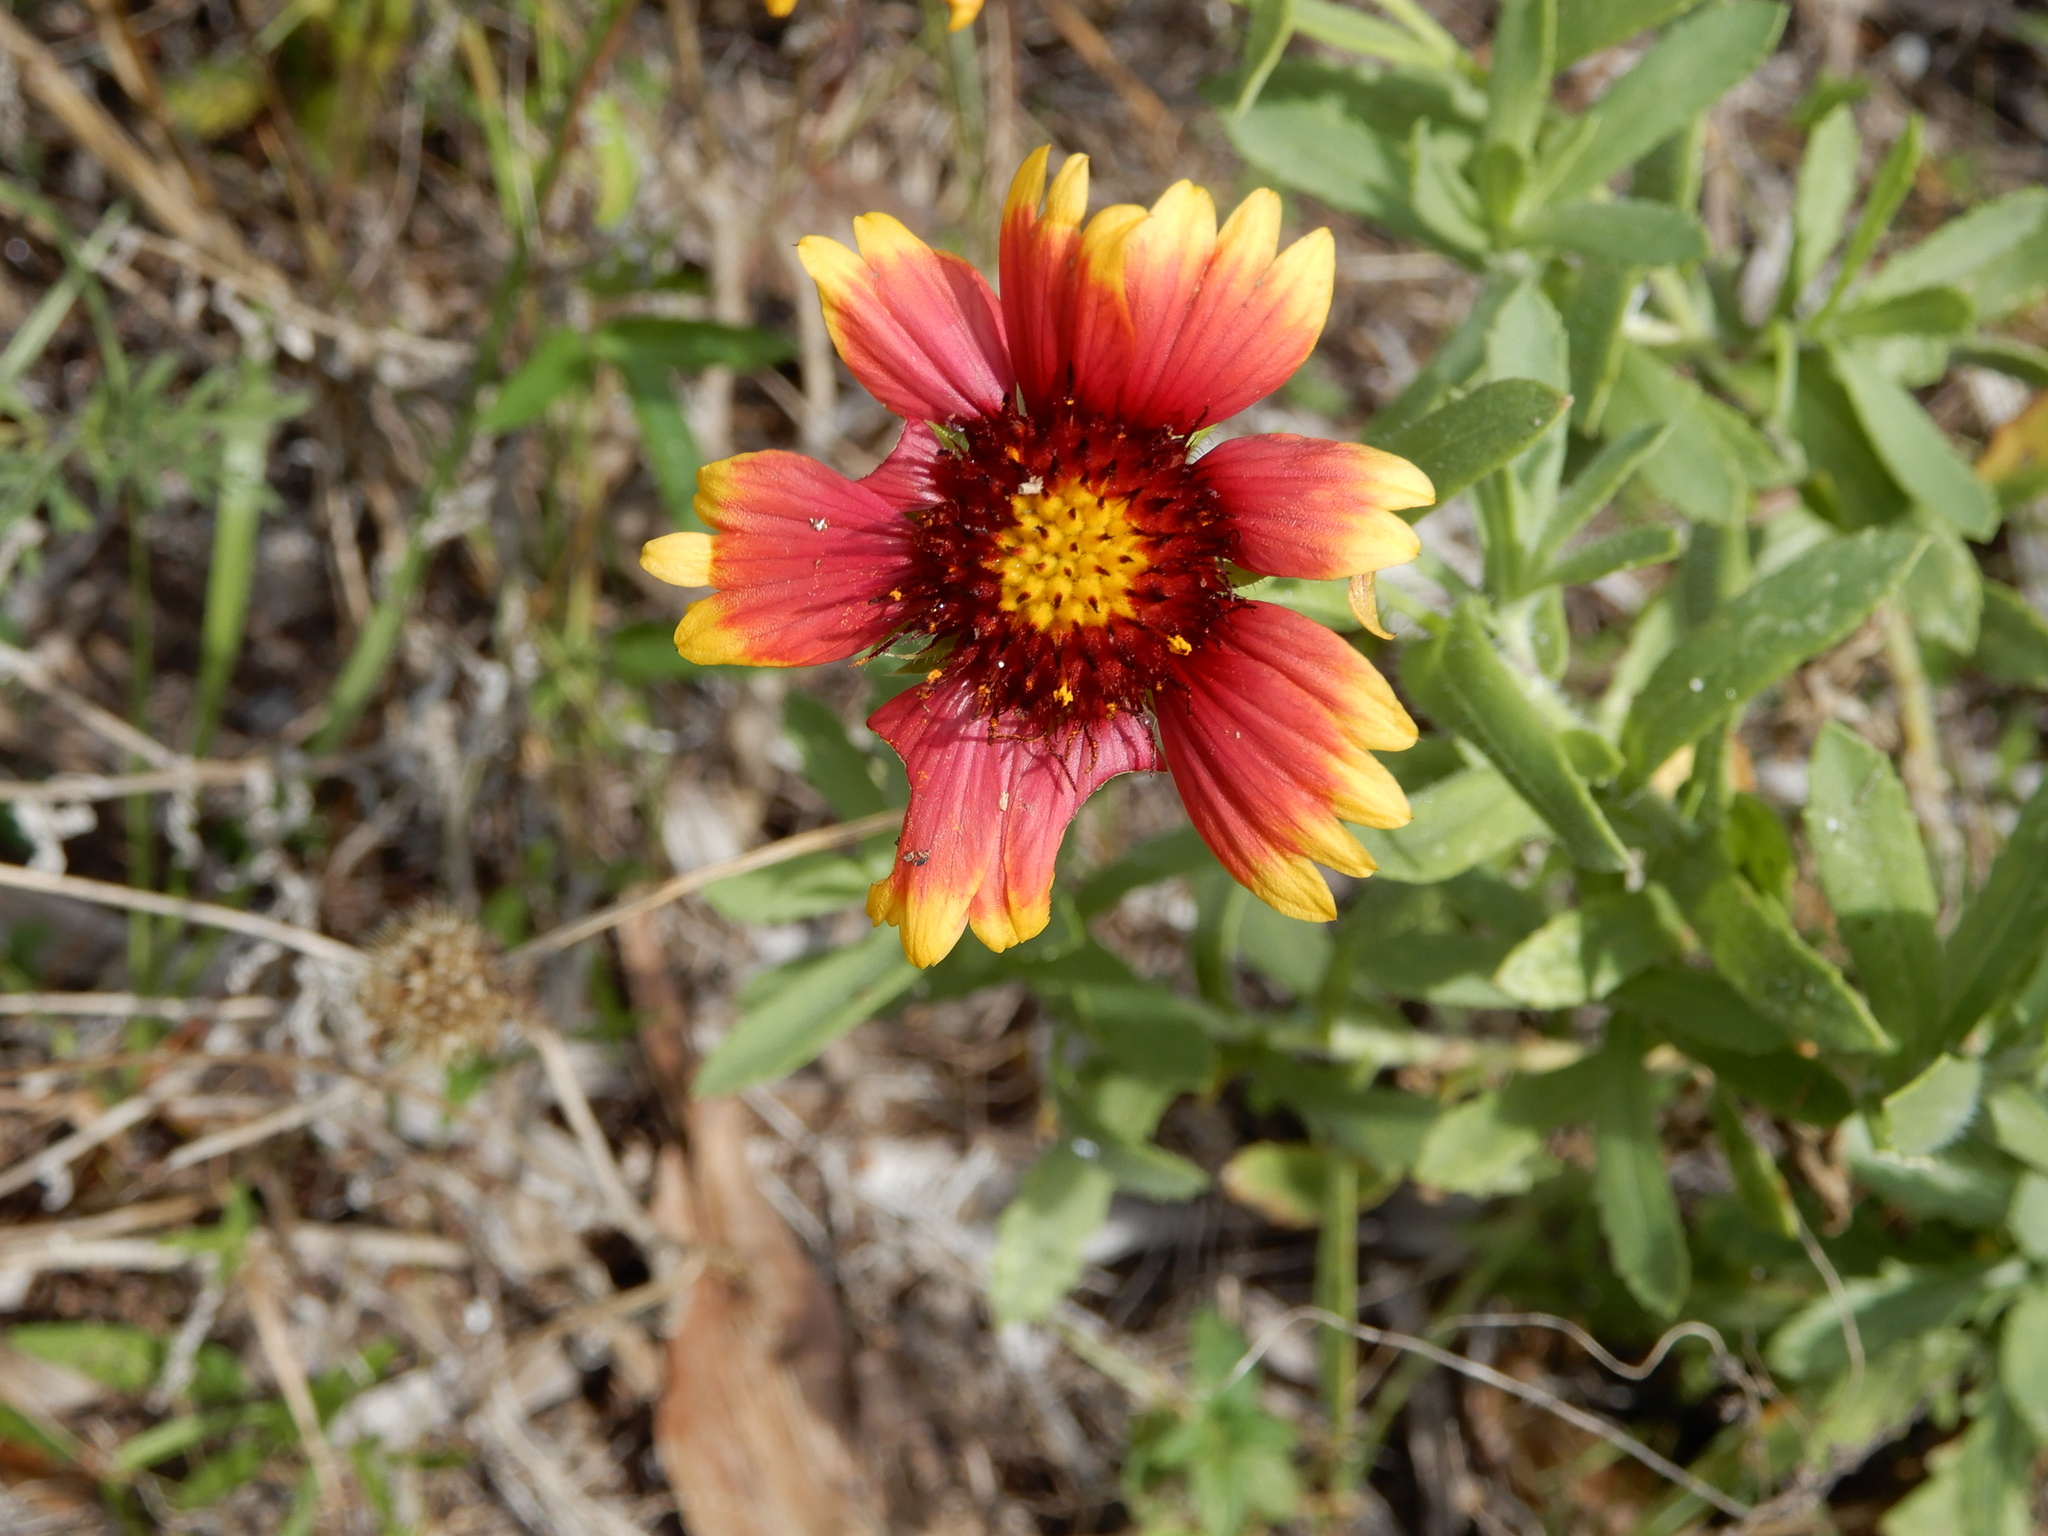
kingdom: Plantae
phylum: Tracheophyta
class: Magnoliopsida
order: Asterales
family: Asteraceae
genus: Gaillardia
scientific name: Gaillardia pulchella
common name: Firewheel
